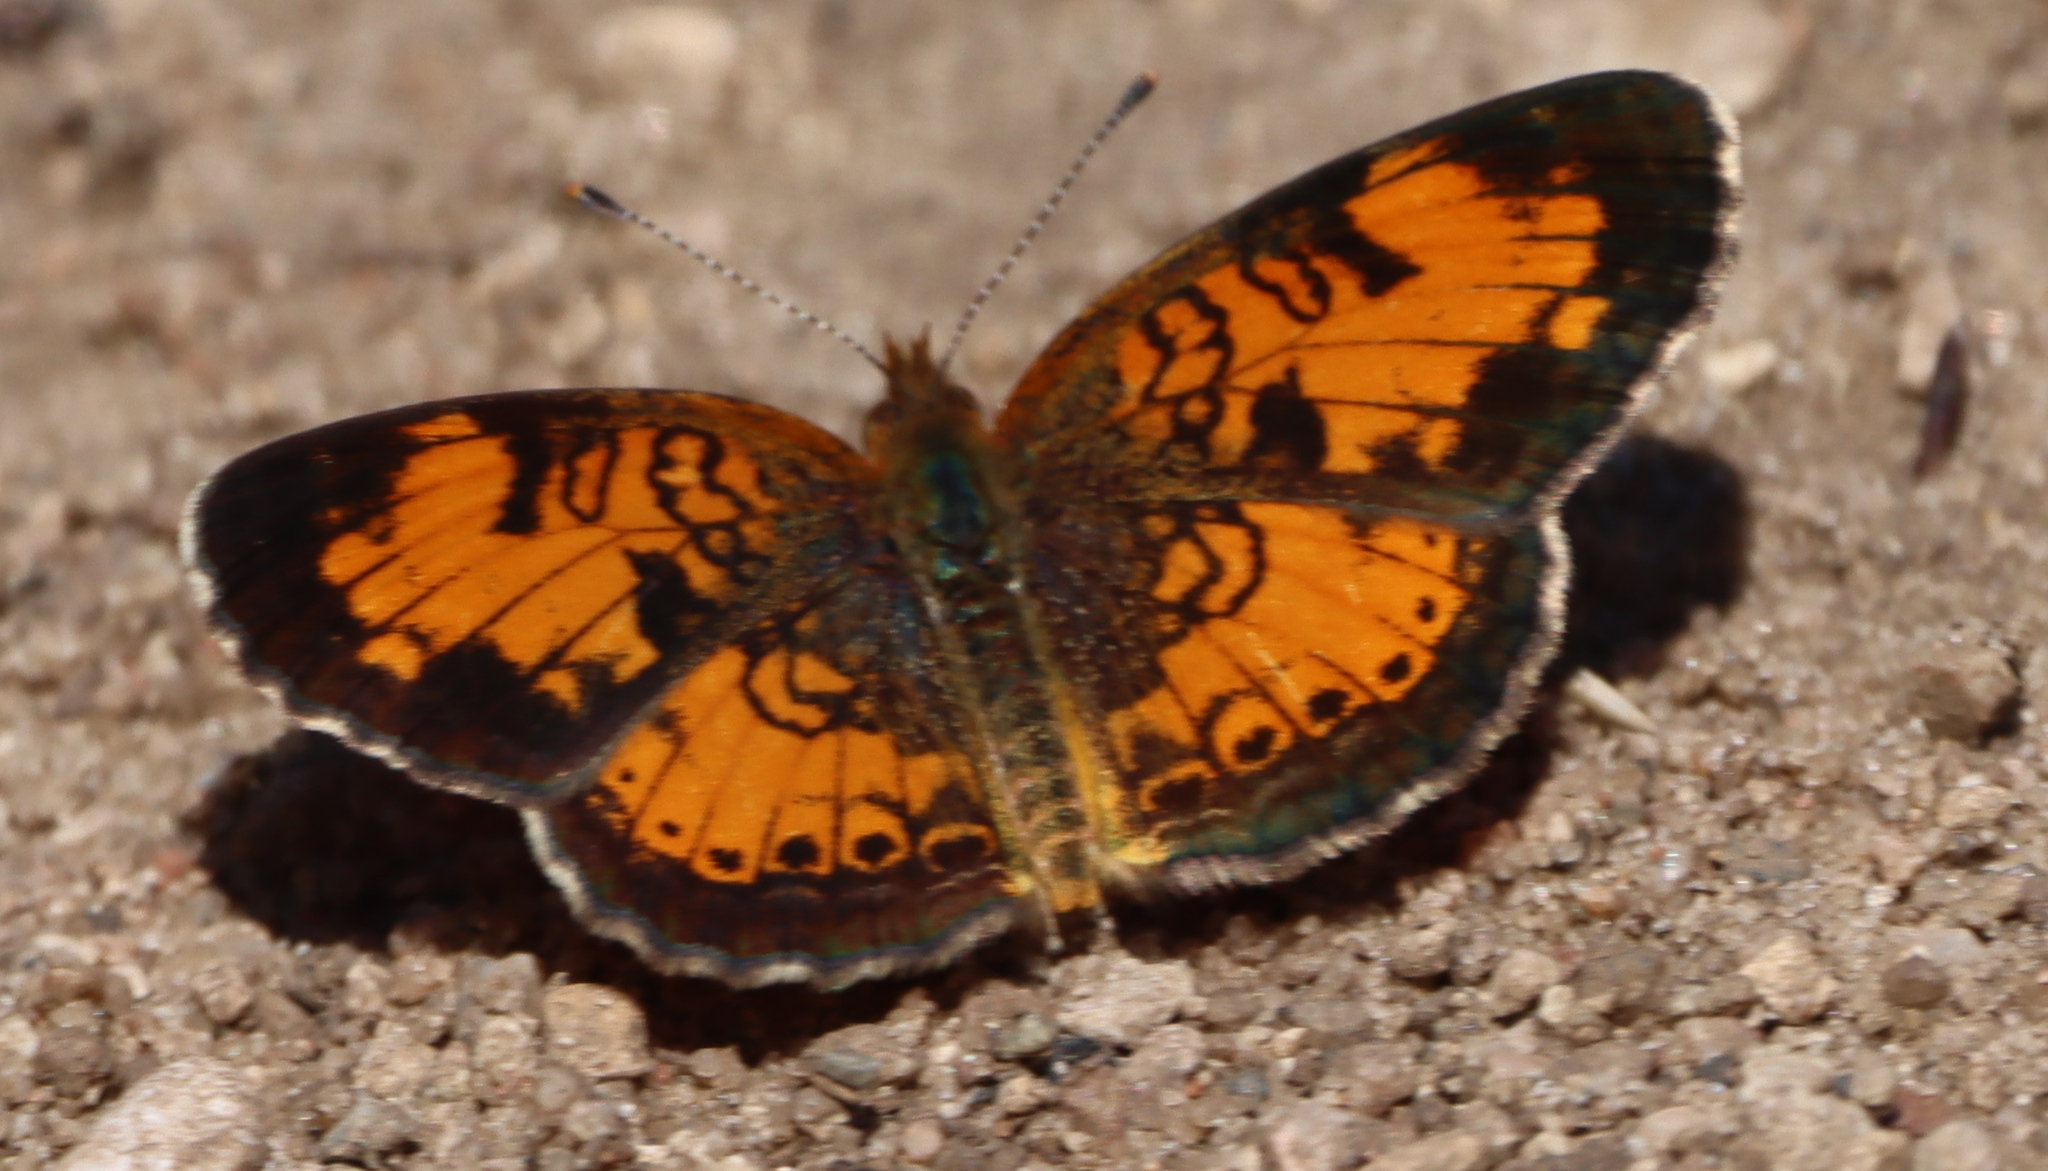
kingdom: Animalia
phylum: Arthropoda
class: Insecta
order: Lepidoptera
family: Nymphalidae
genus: Phyciodes
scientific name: Phyciodes tharos
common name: Pearl crescent
